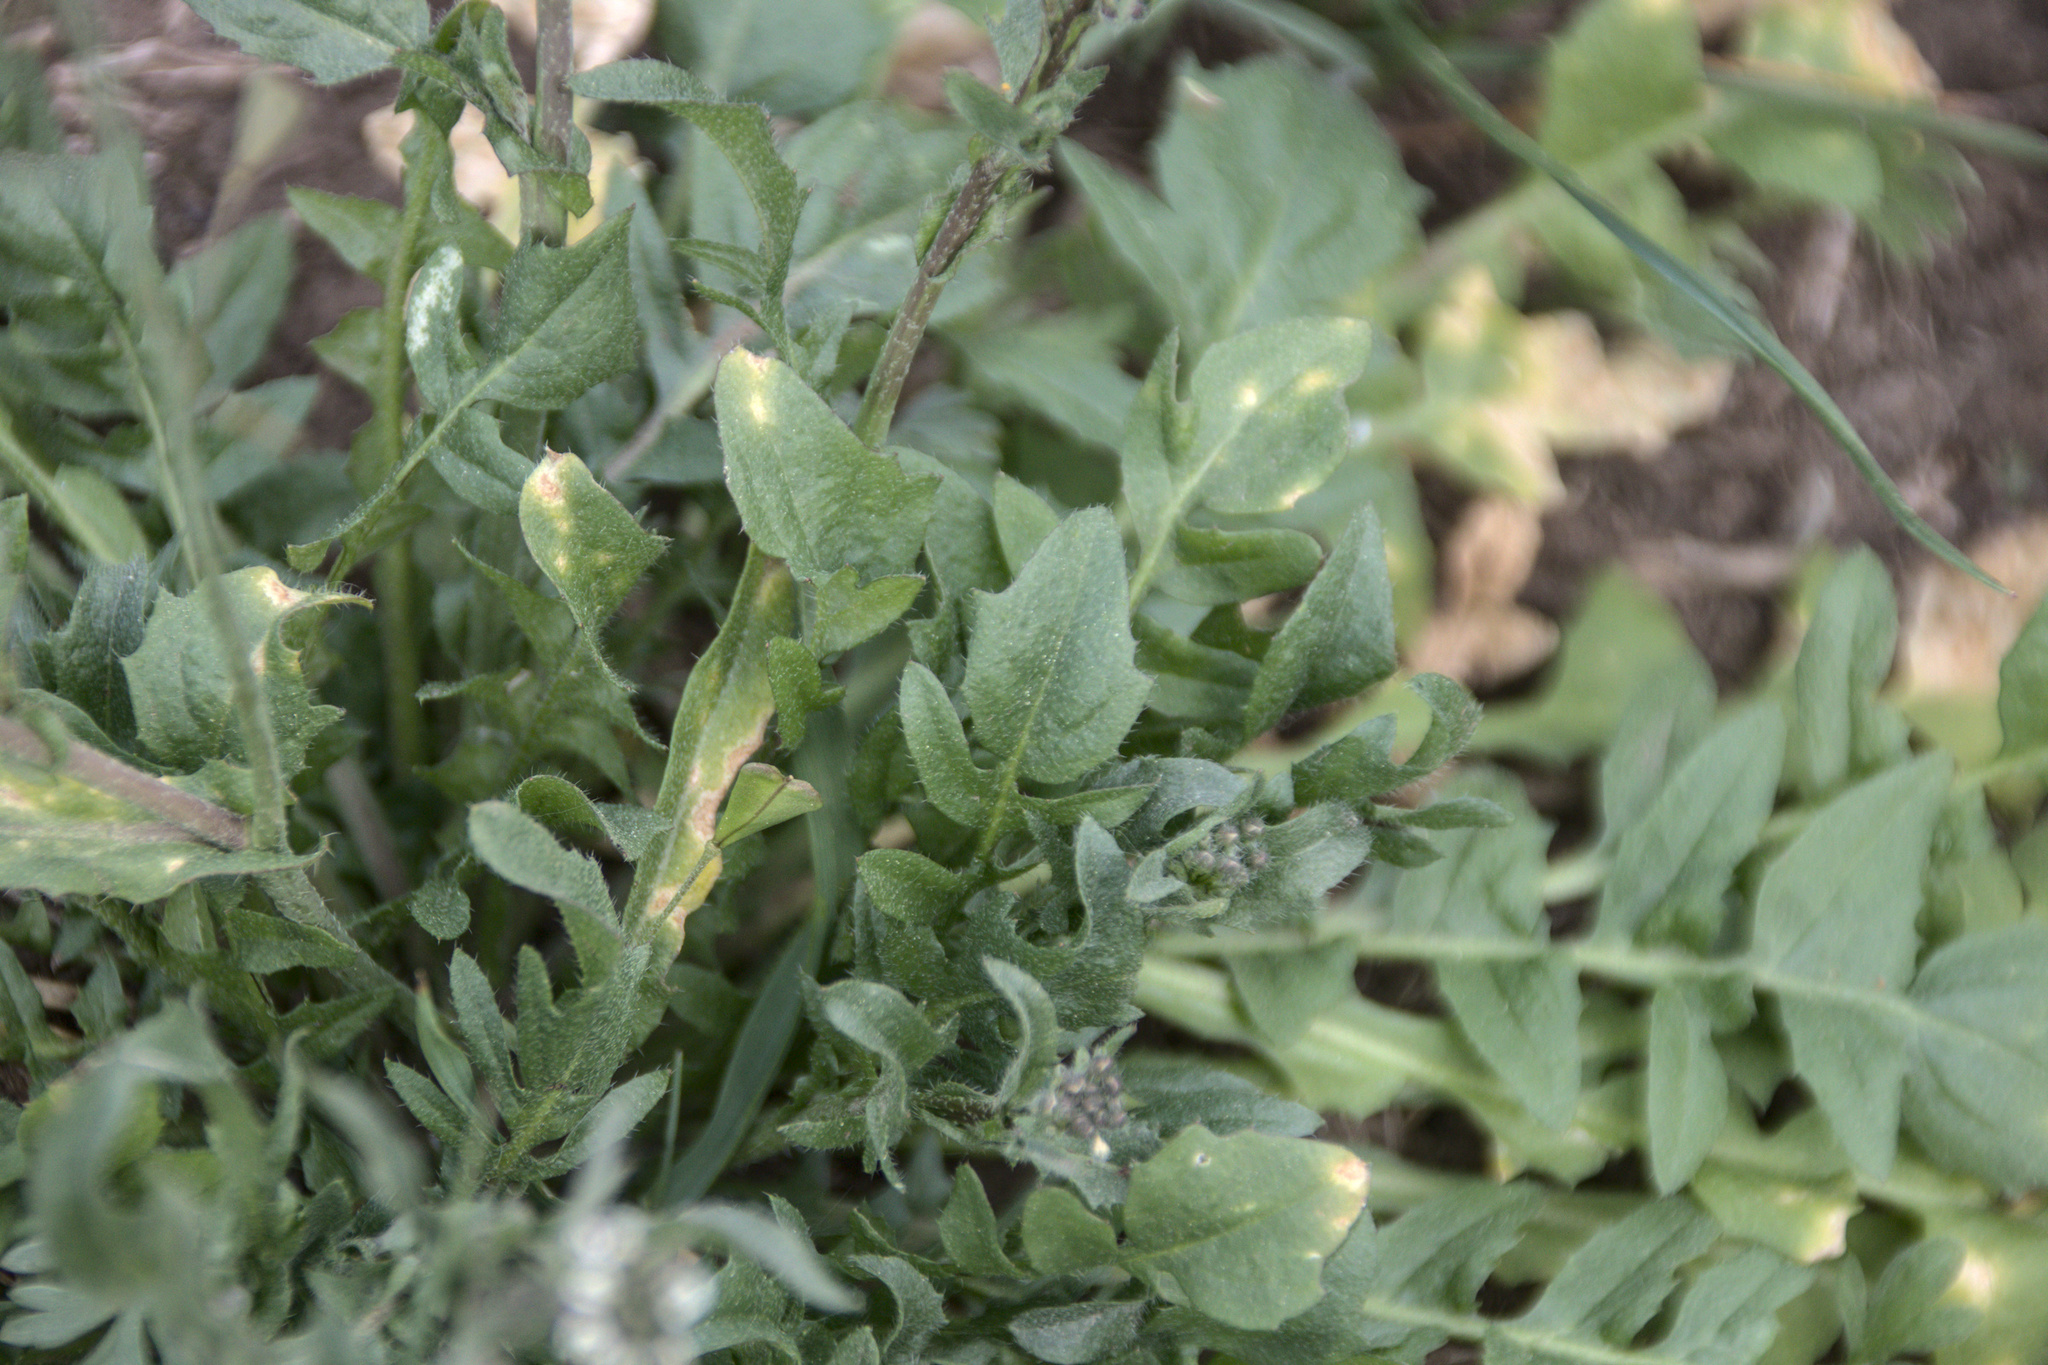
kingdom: Plantae
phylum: Tracheophyta
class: Magnoliopsida
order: Brassicales
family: Brassicaceae
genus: Capsella
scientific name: Capsella bursa-pastoris
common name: Shepherd's purse
